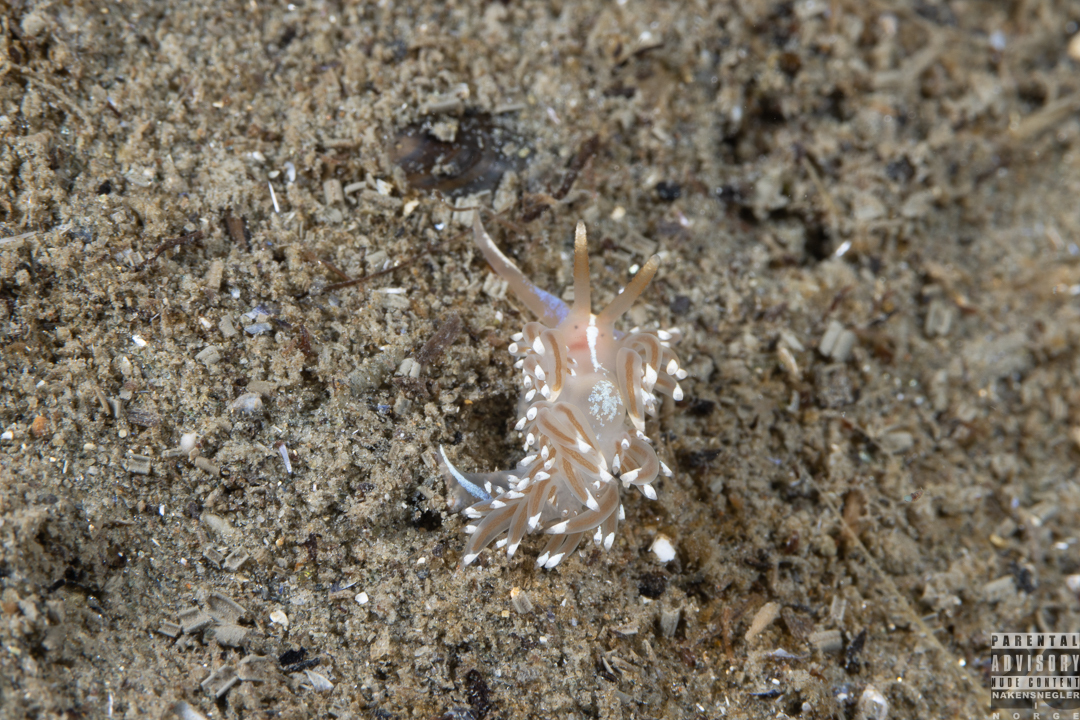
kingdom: Animalia
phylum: Mollusca
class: Gastropoda
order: Nudibranchia
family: Facelinidae
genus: Facelina
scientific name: Facelina bostoniensis
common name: Boston facelina
